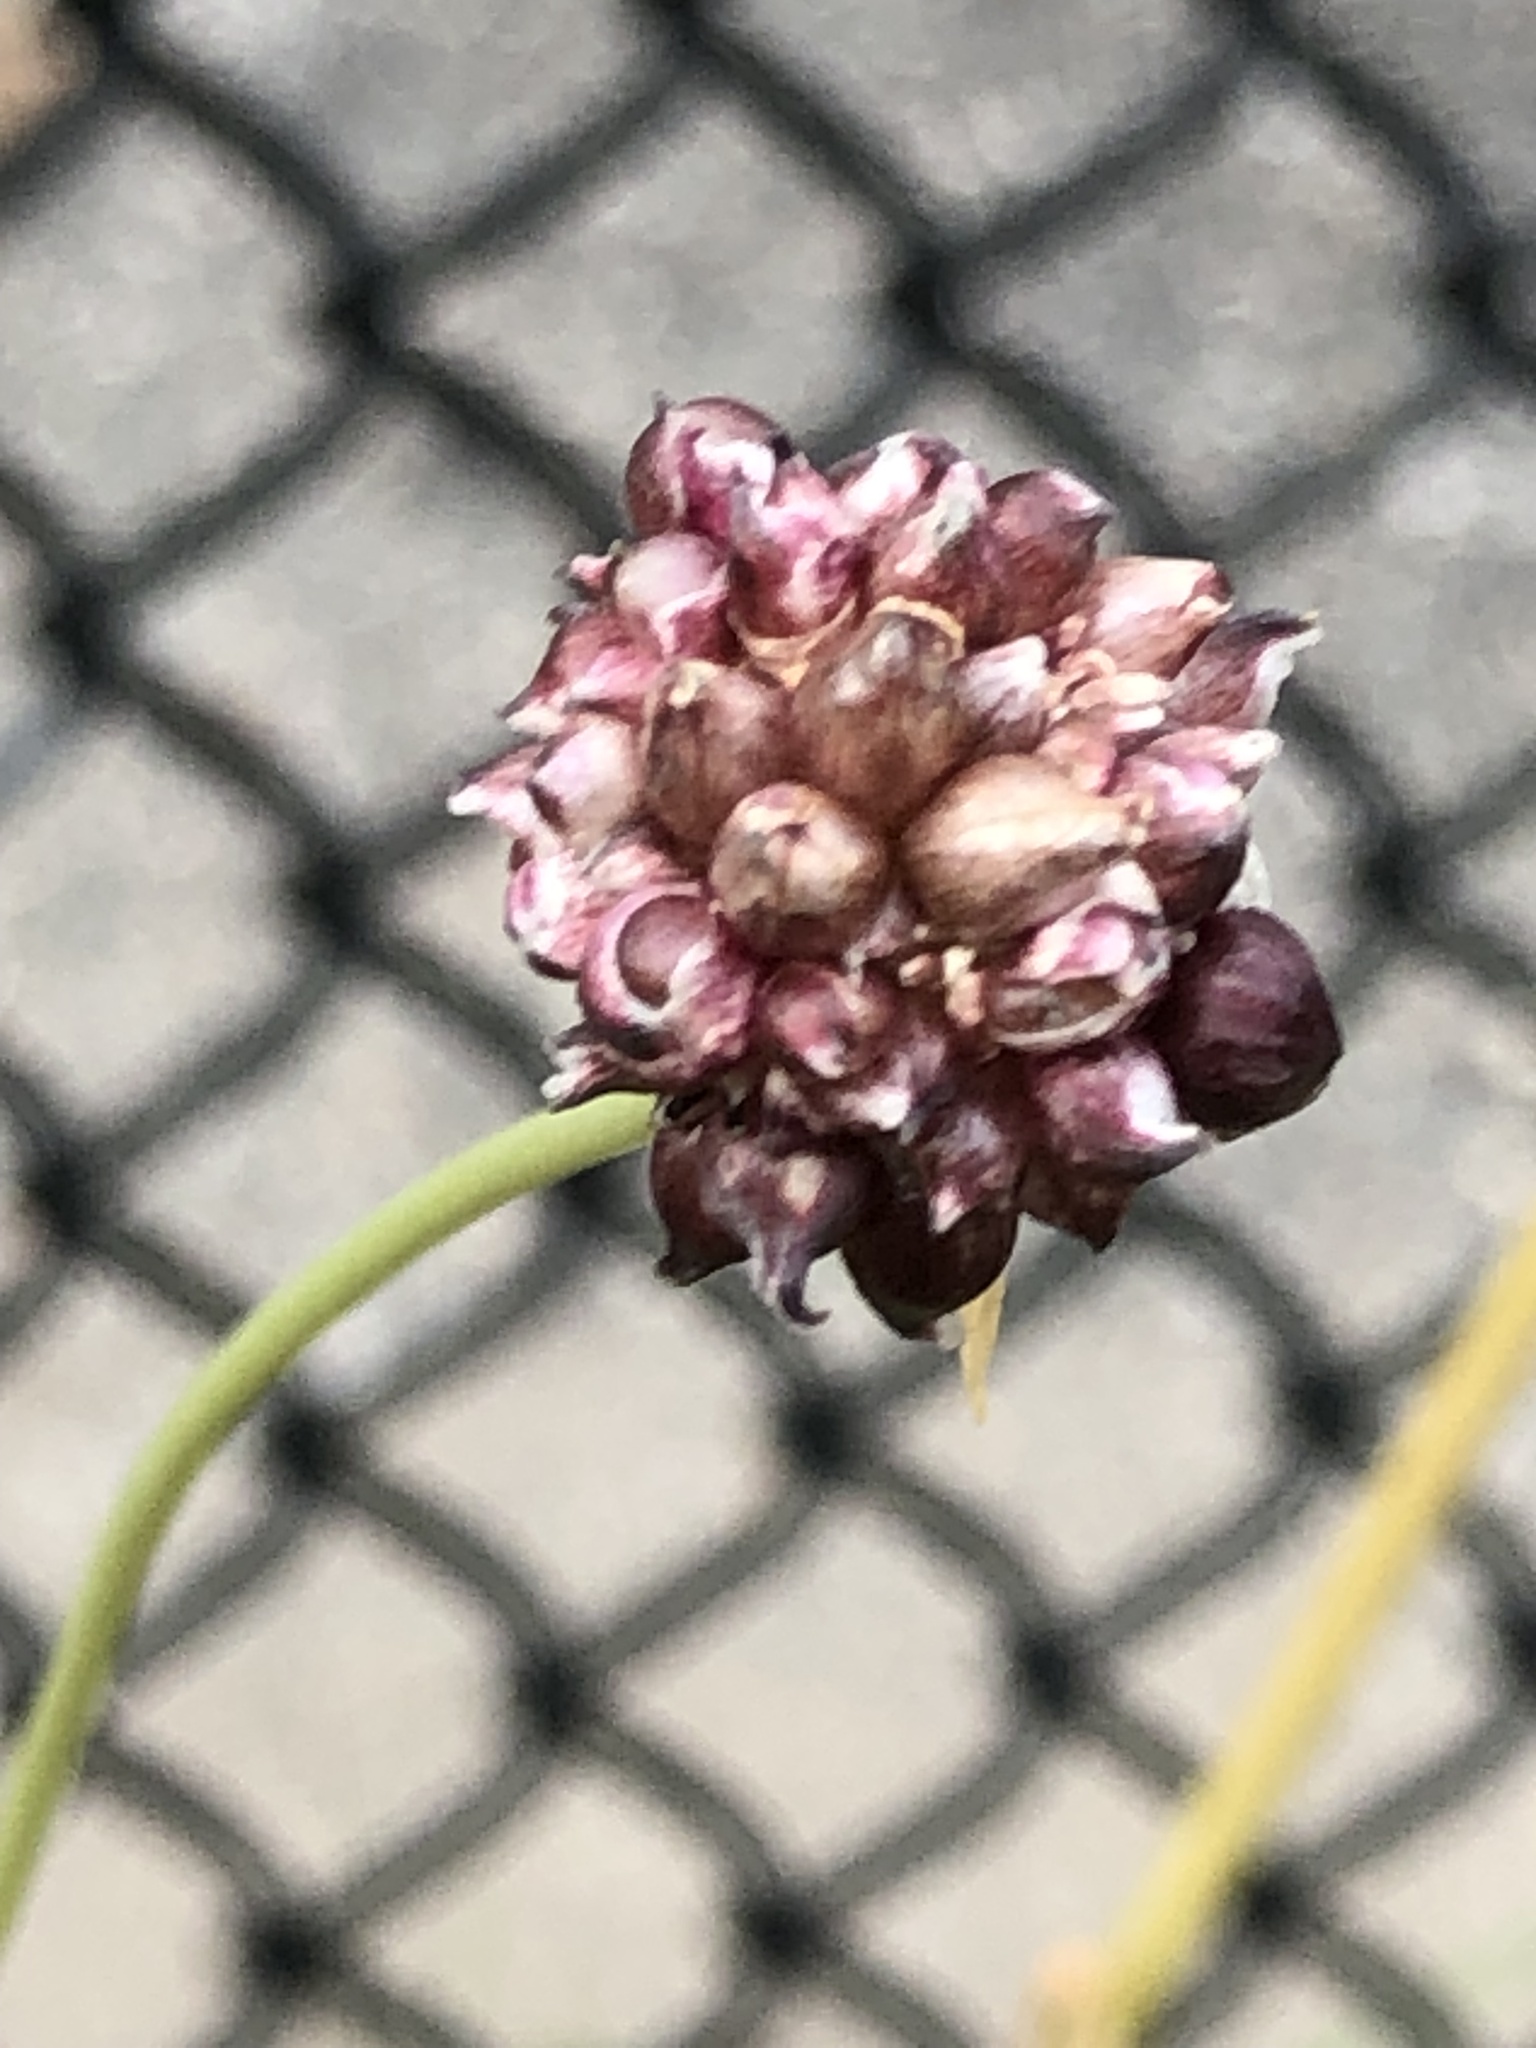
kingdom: Plantae
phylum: Tracheophyta
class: Liliopsida
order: Asparagales
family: Amaryllidaceae
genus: Allium
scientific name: Allium vineale
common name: Crow garlic
